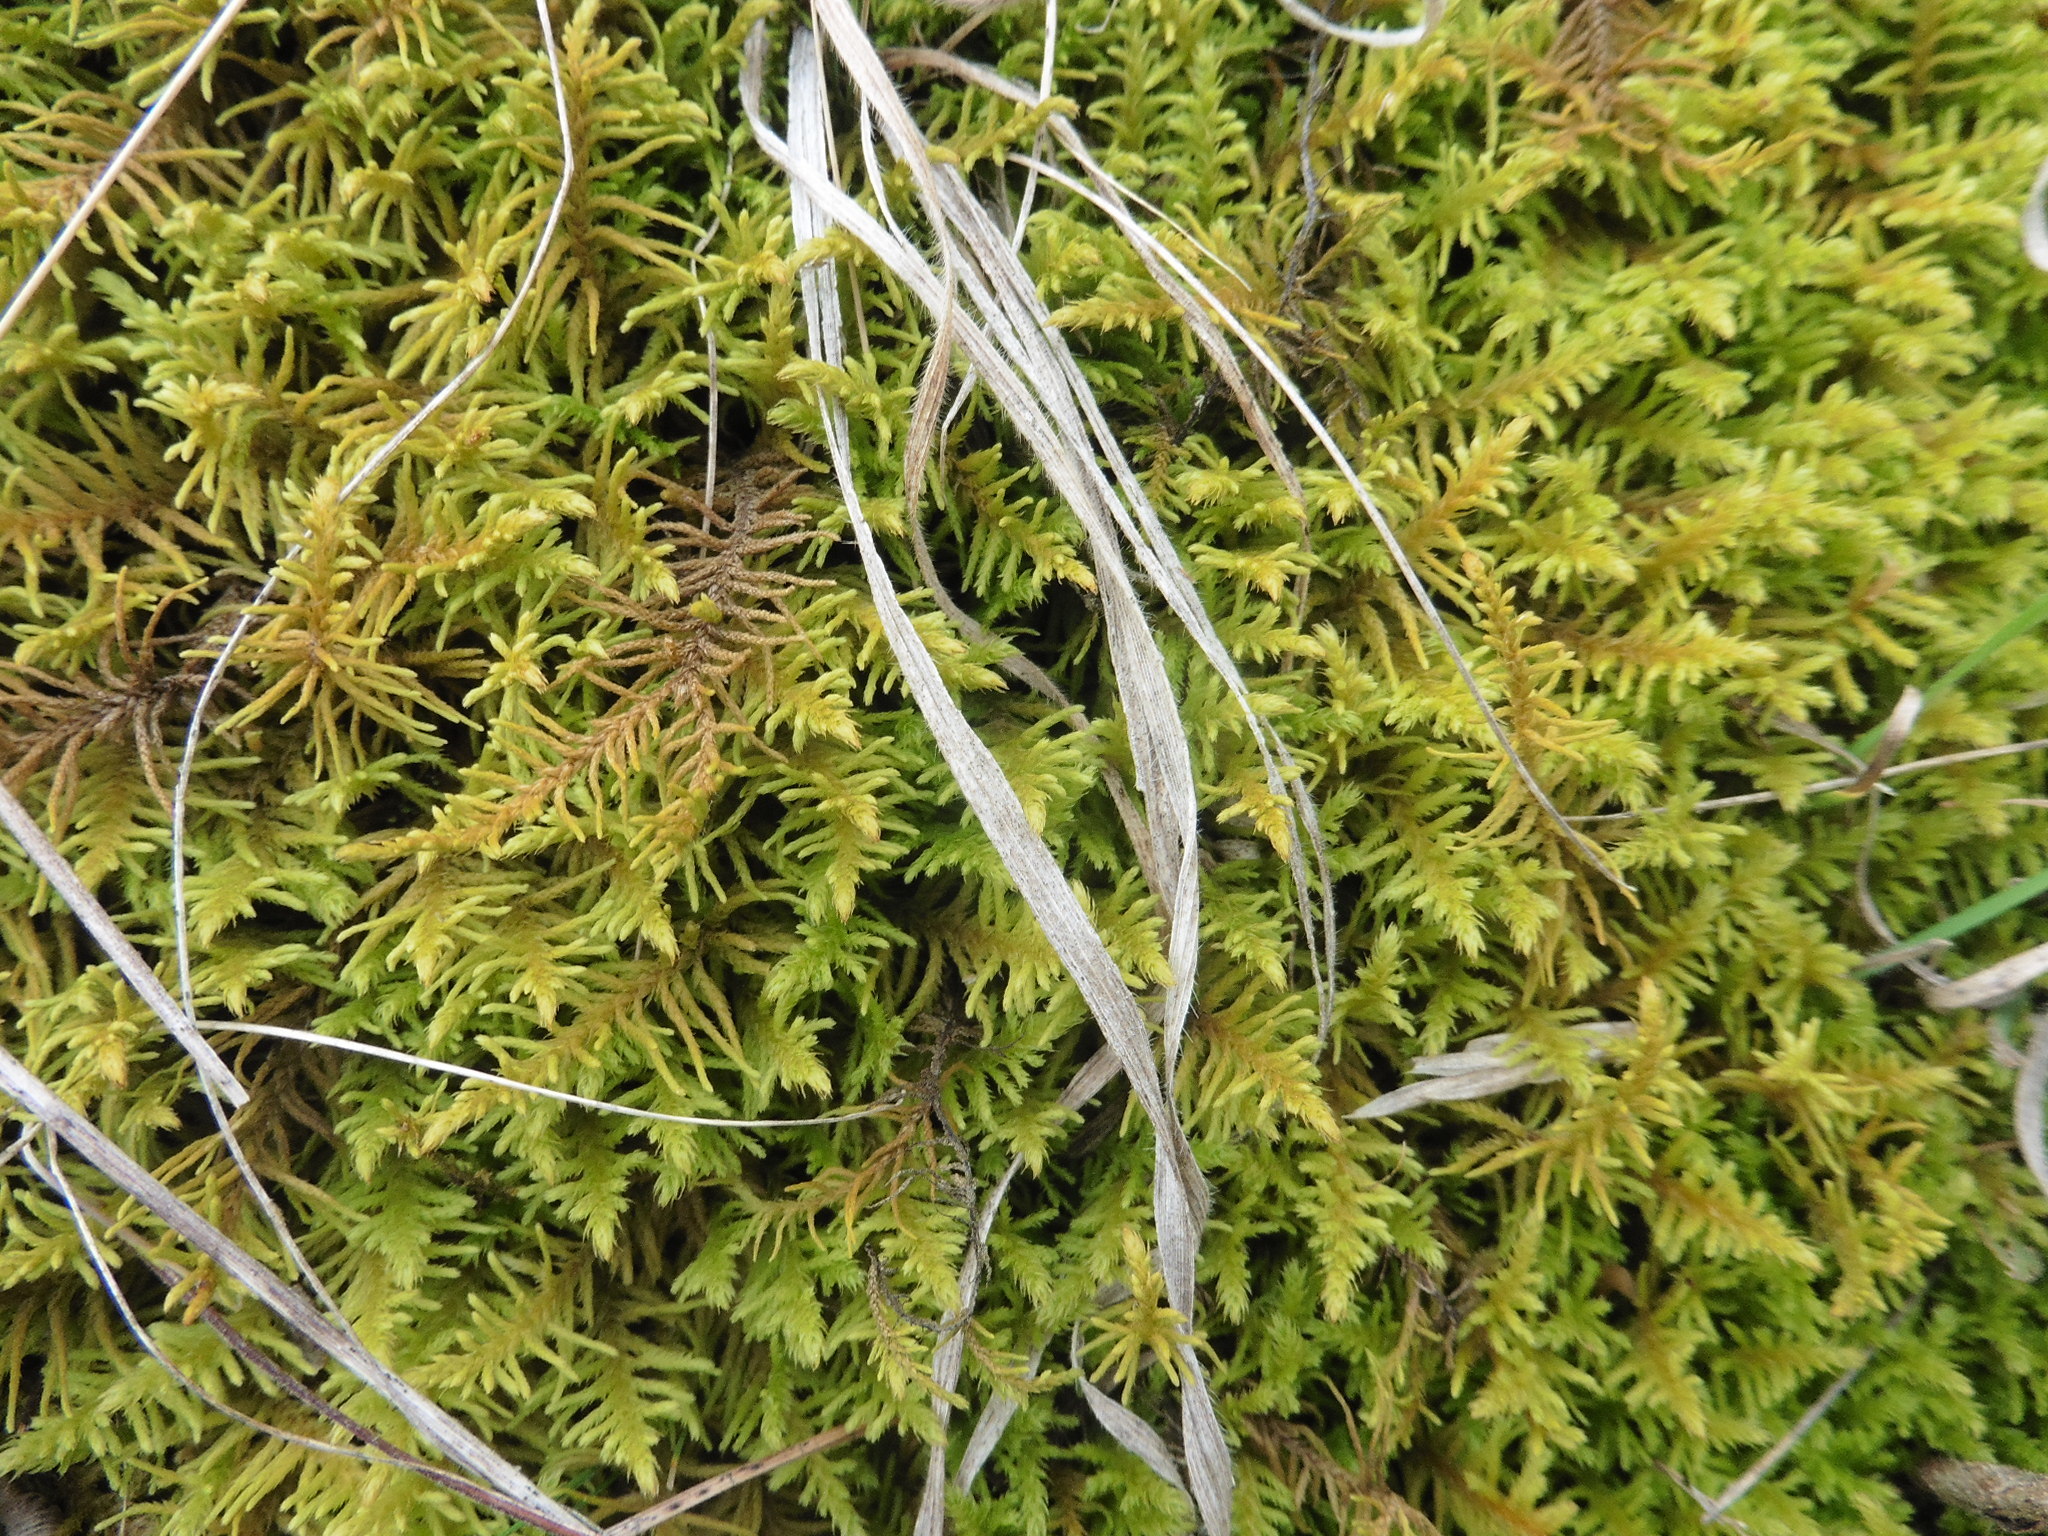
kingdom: Plantae
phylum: Bryophyta
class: Bryopsida
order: Hypnales
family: Thuidiaceae
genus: Abietinella
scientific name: Abietinella abietina
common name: Wiry fern moss
